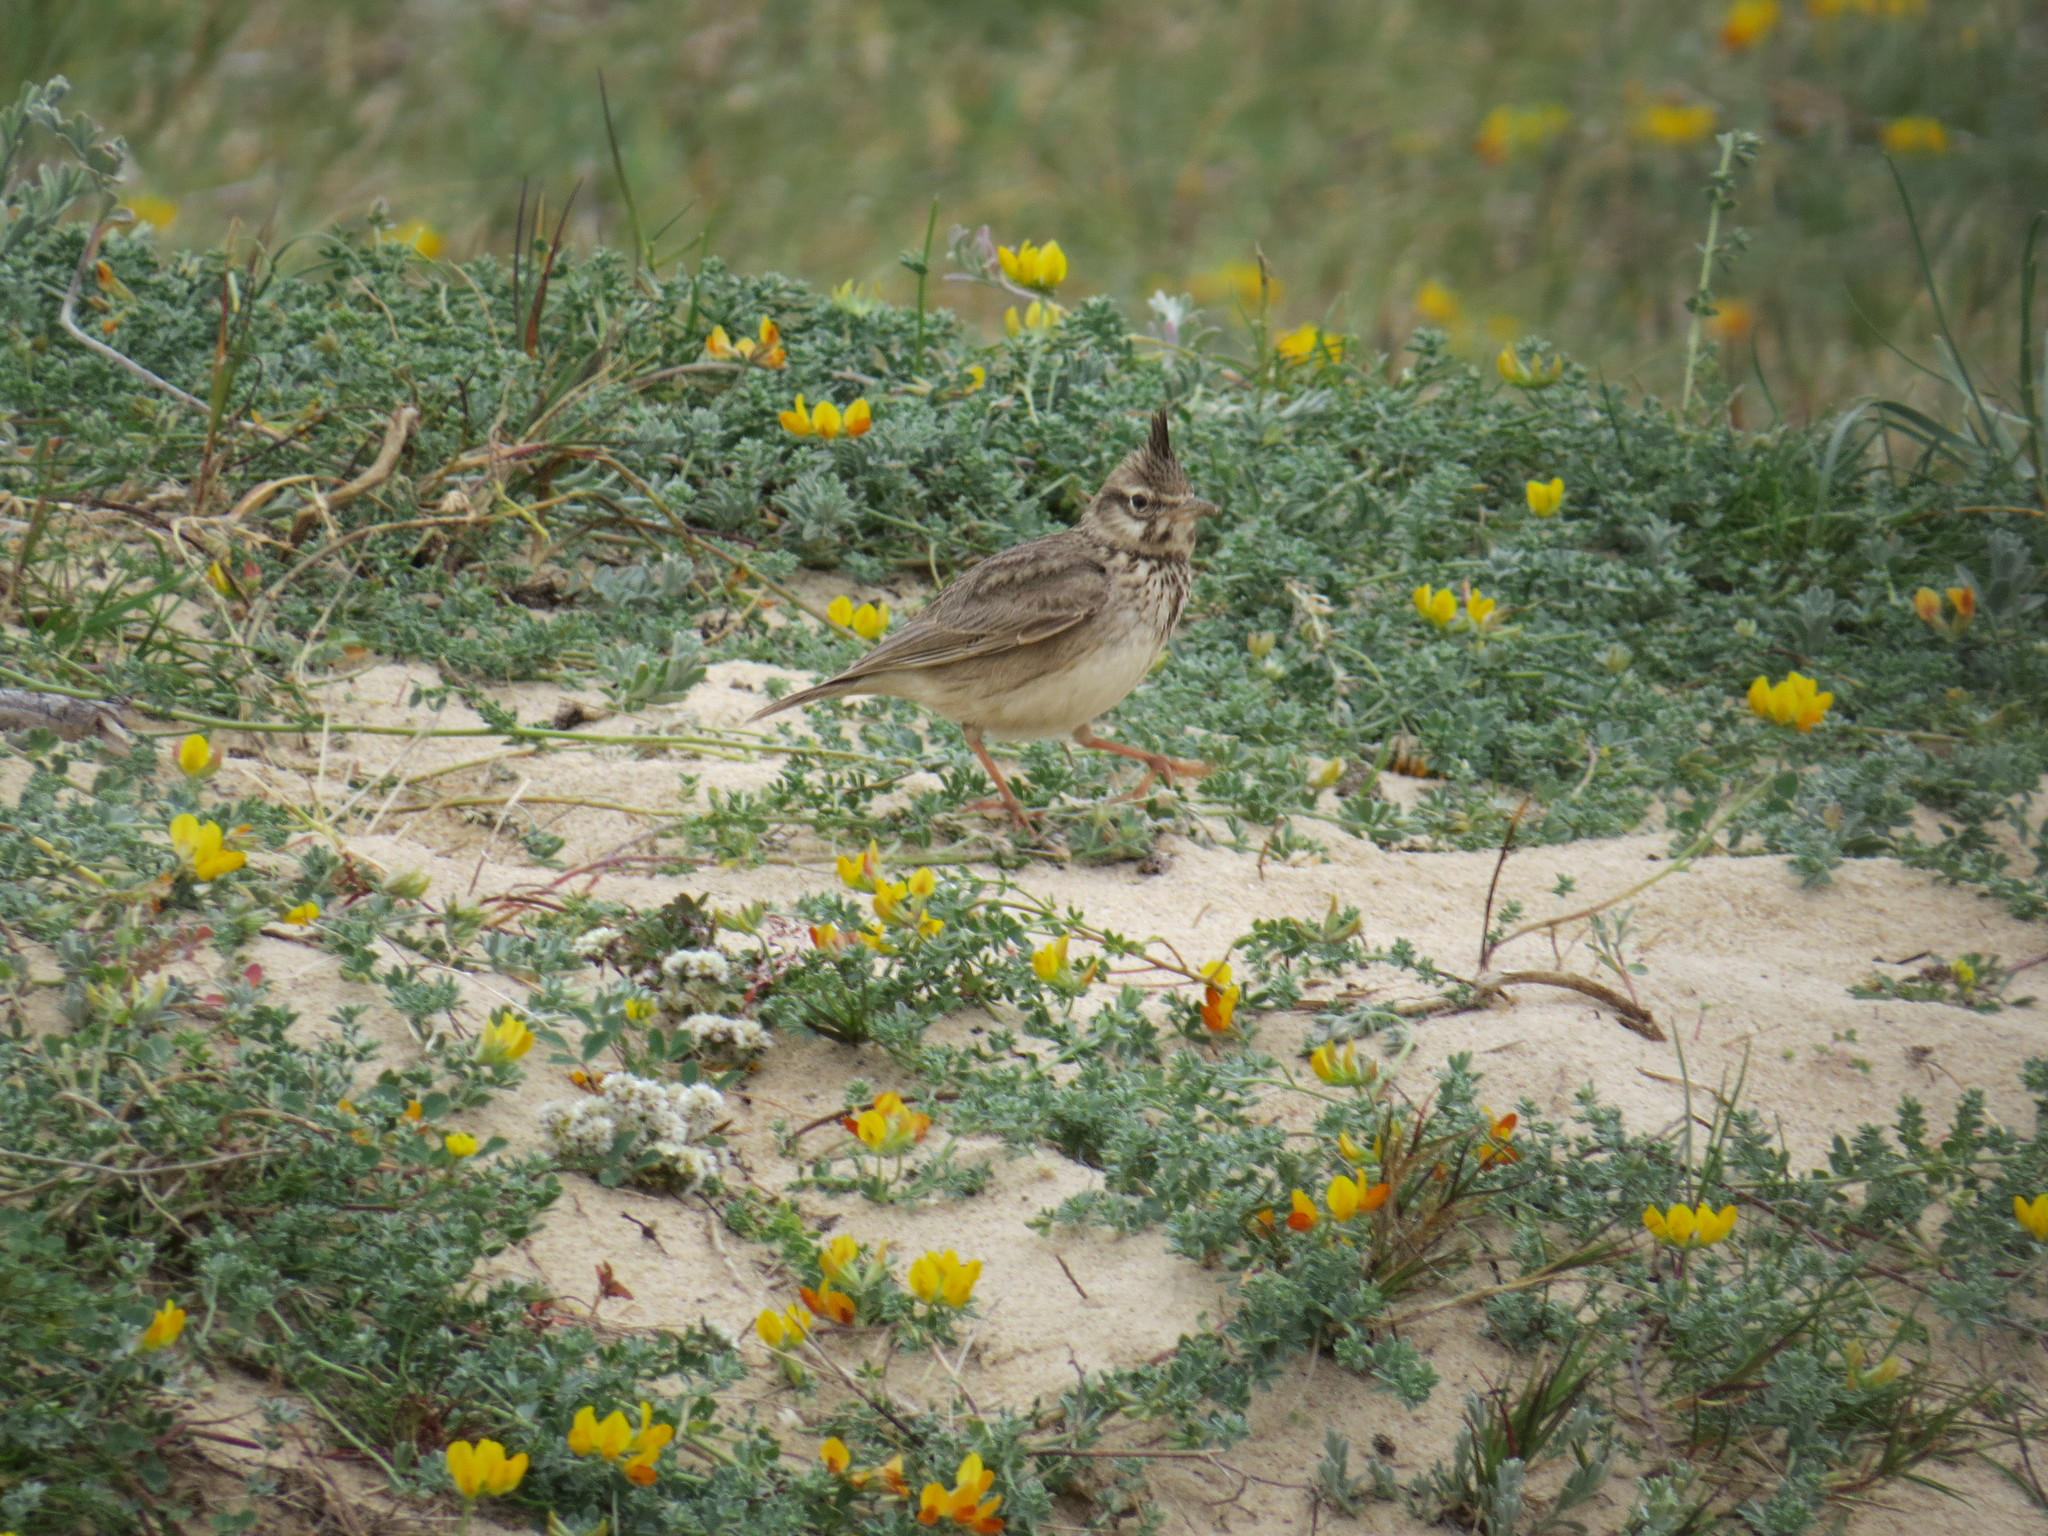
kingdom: Animalia
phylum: Chordata
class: Aves
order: Passeriformes
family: Alaudidae
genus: Galerida
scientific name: Galerida cristata
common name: Crested lark
